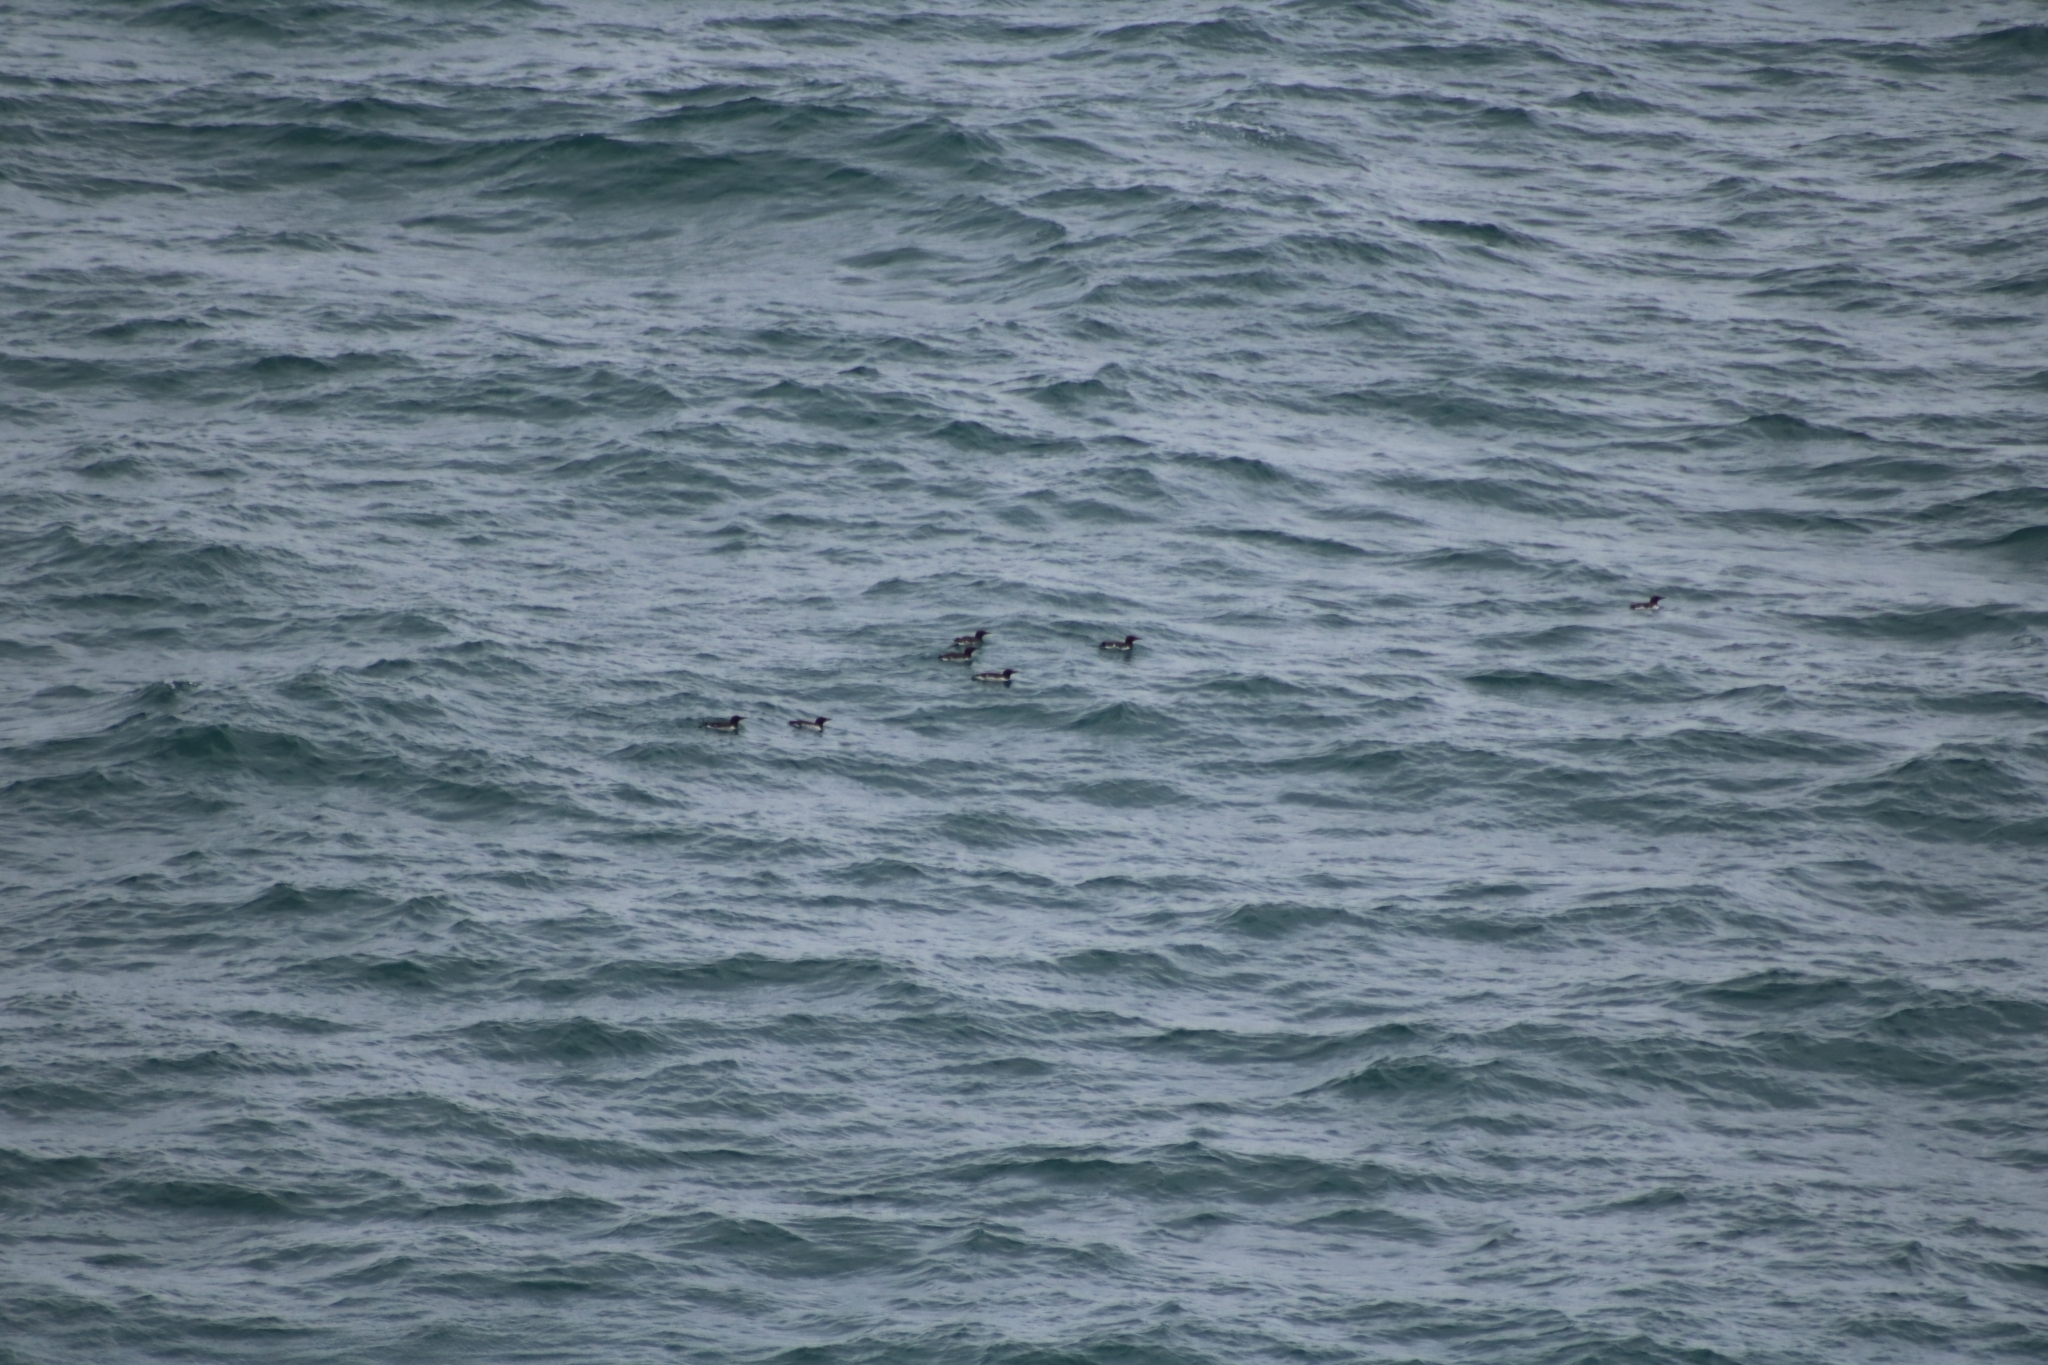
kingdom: Animalia
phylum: Chordata
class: Aves
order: Charadriiformes
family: Alcidae
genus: Uria
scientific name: Uria aalge
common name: Common murre
